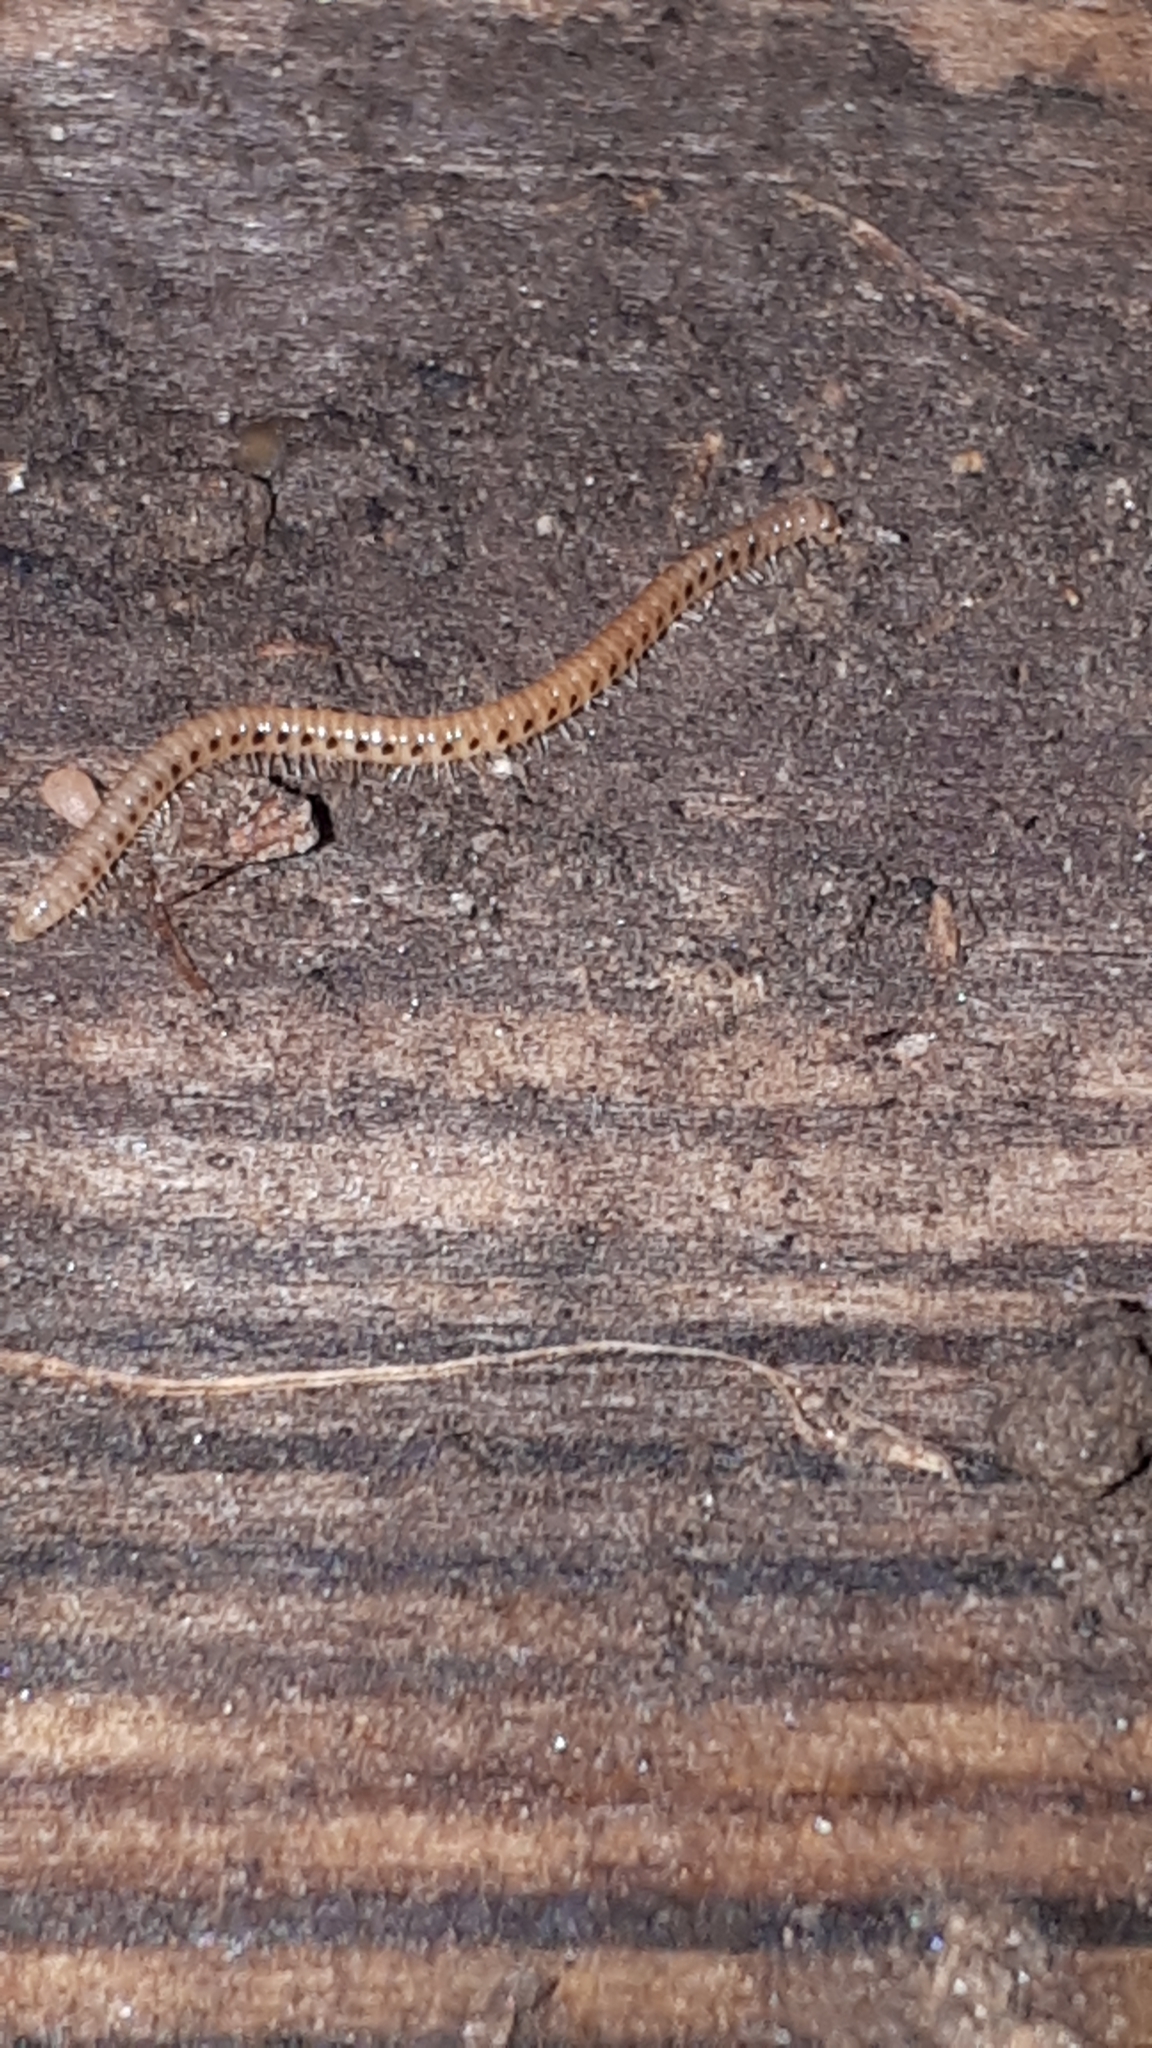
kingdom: Animalia
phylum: Arthropoda
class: Diplopoda
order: Julida
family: Blaniulidae
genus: Proteroiulus
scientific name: Proteroiulus fuscus
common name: Millipede
